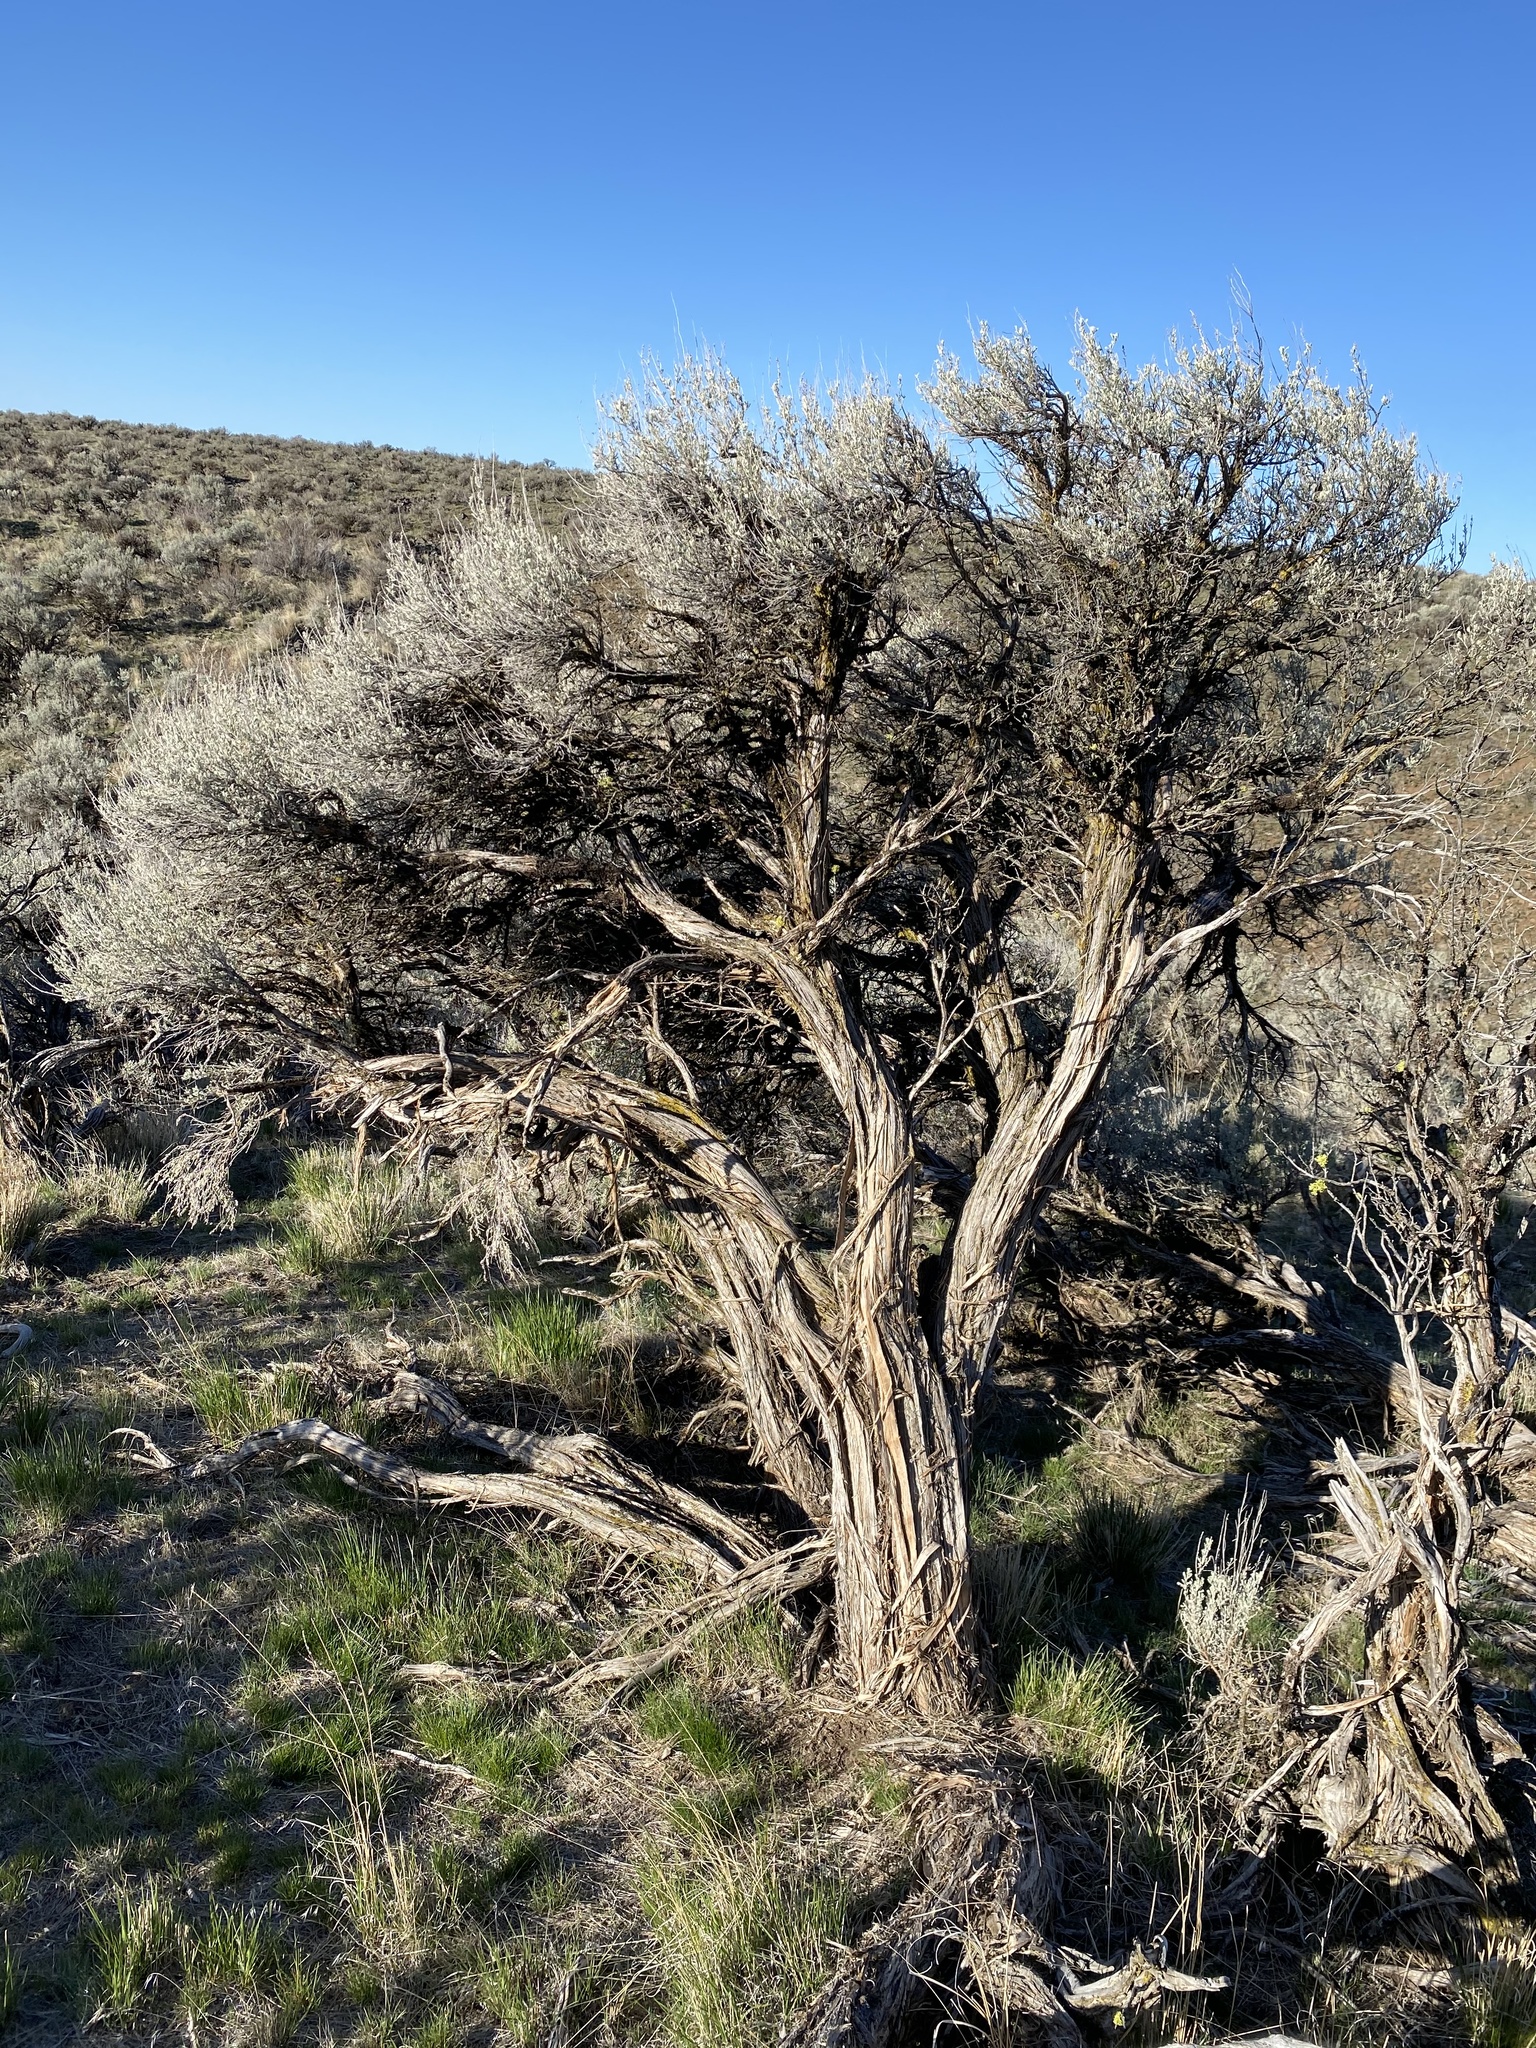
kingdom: Plantae
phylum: Tracheophyta
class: Magnoliopsida
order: Asterales
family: Asteraceae
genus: Artemisia
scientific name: Artemisia tridentata
